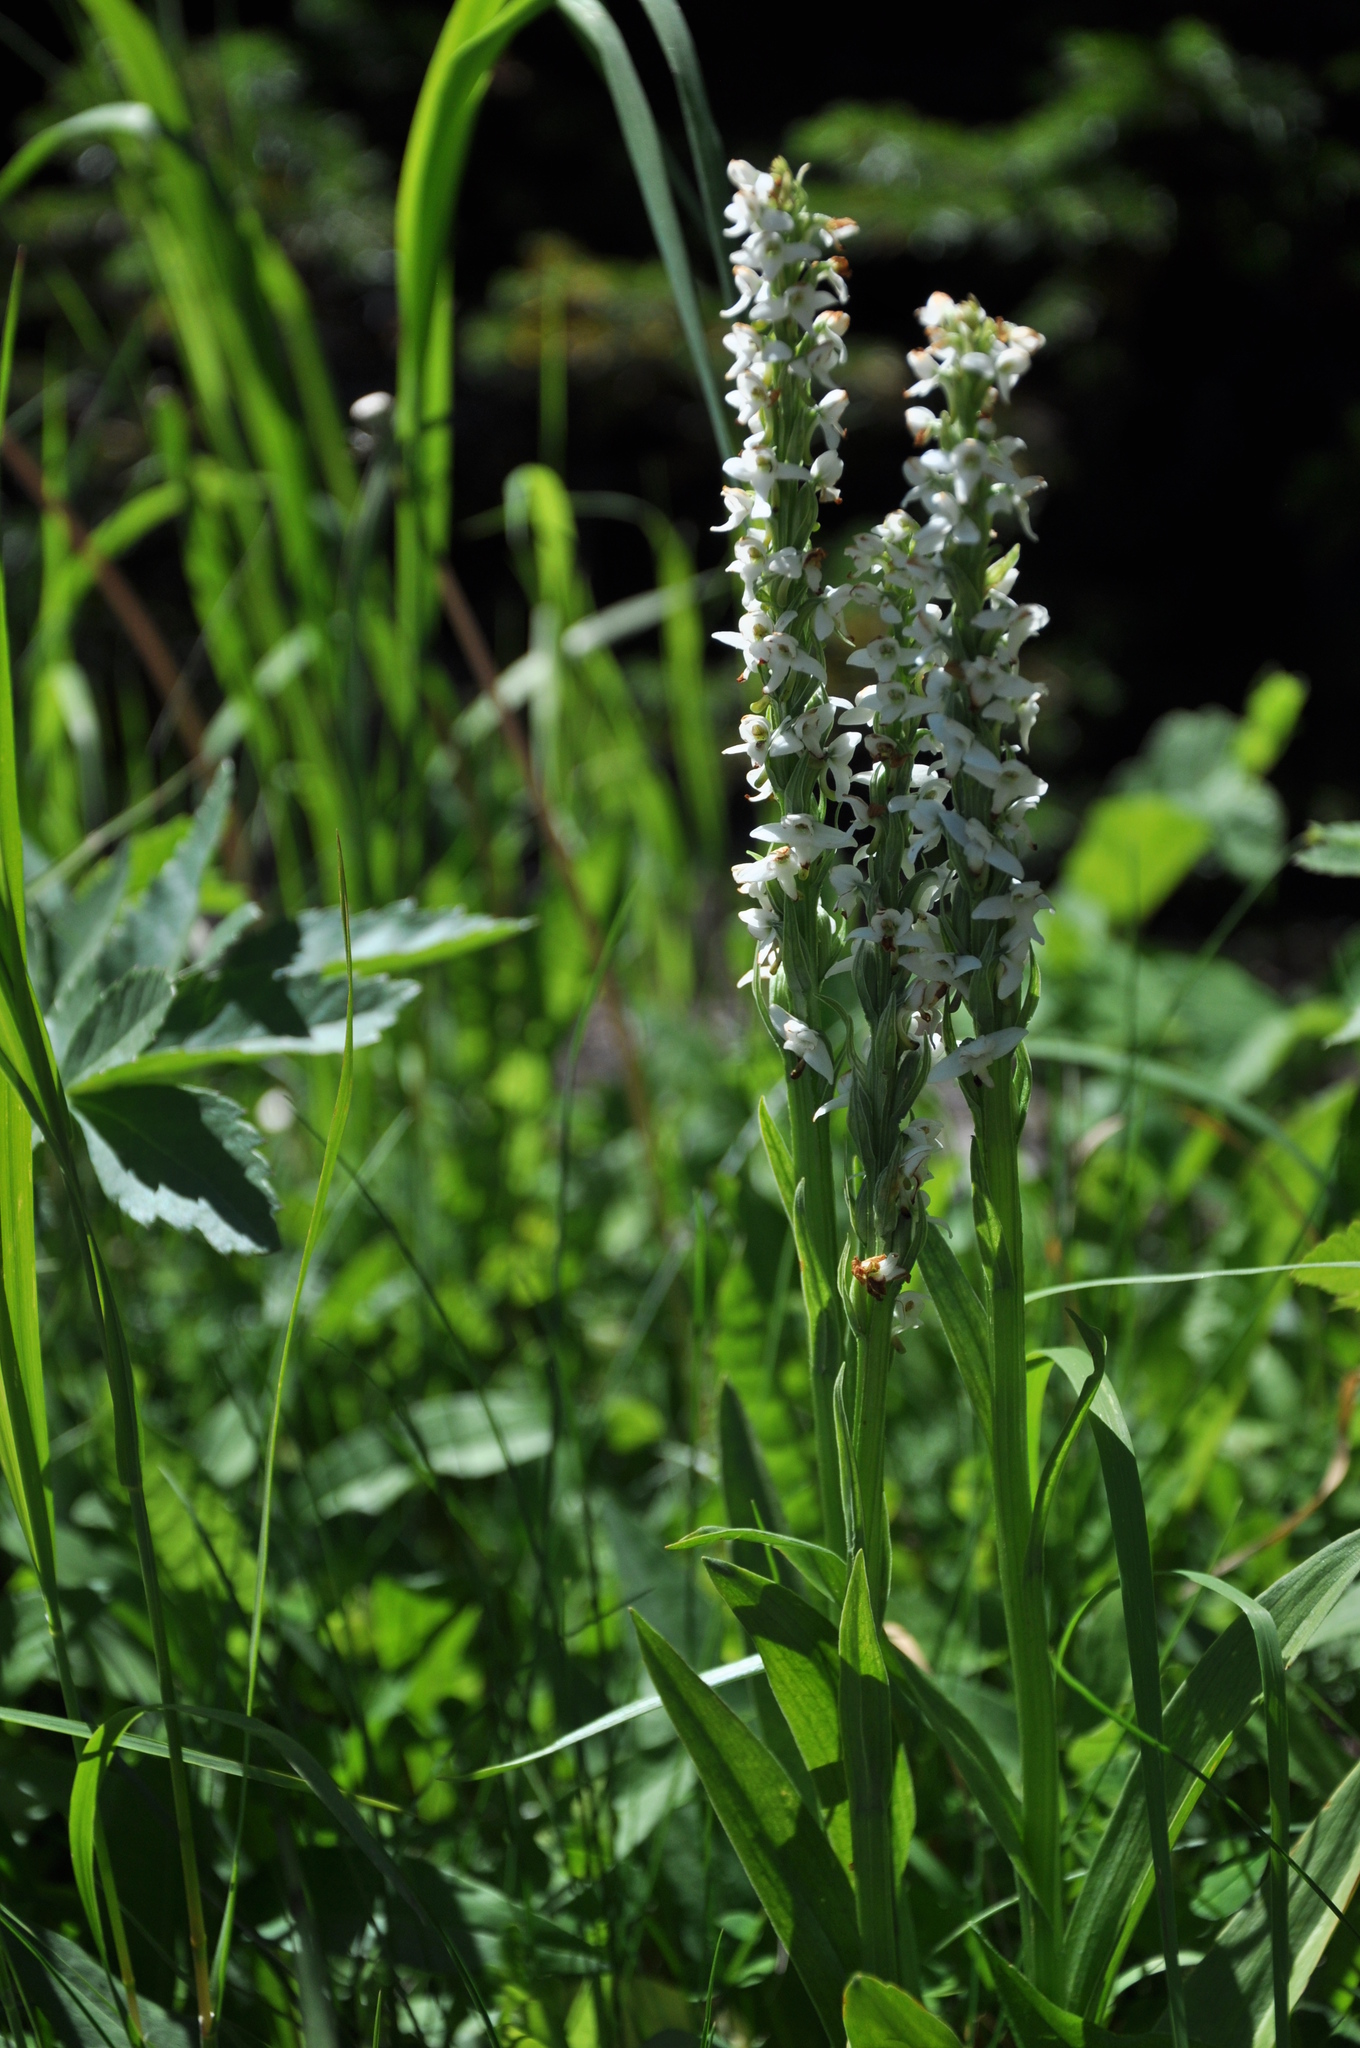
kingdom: Plantae
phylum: Tracheophyta
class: Liliopsida
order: Asparagales
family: Orchidaceae
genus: Platanthera
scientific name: Platanthera dilatata
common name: Bog candles
